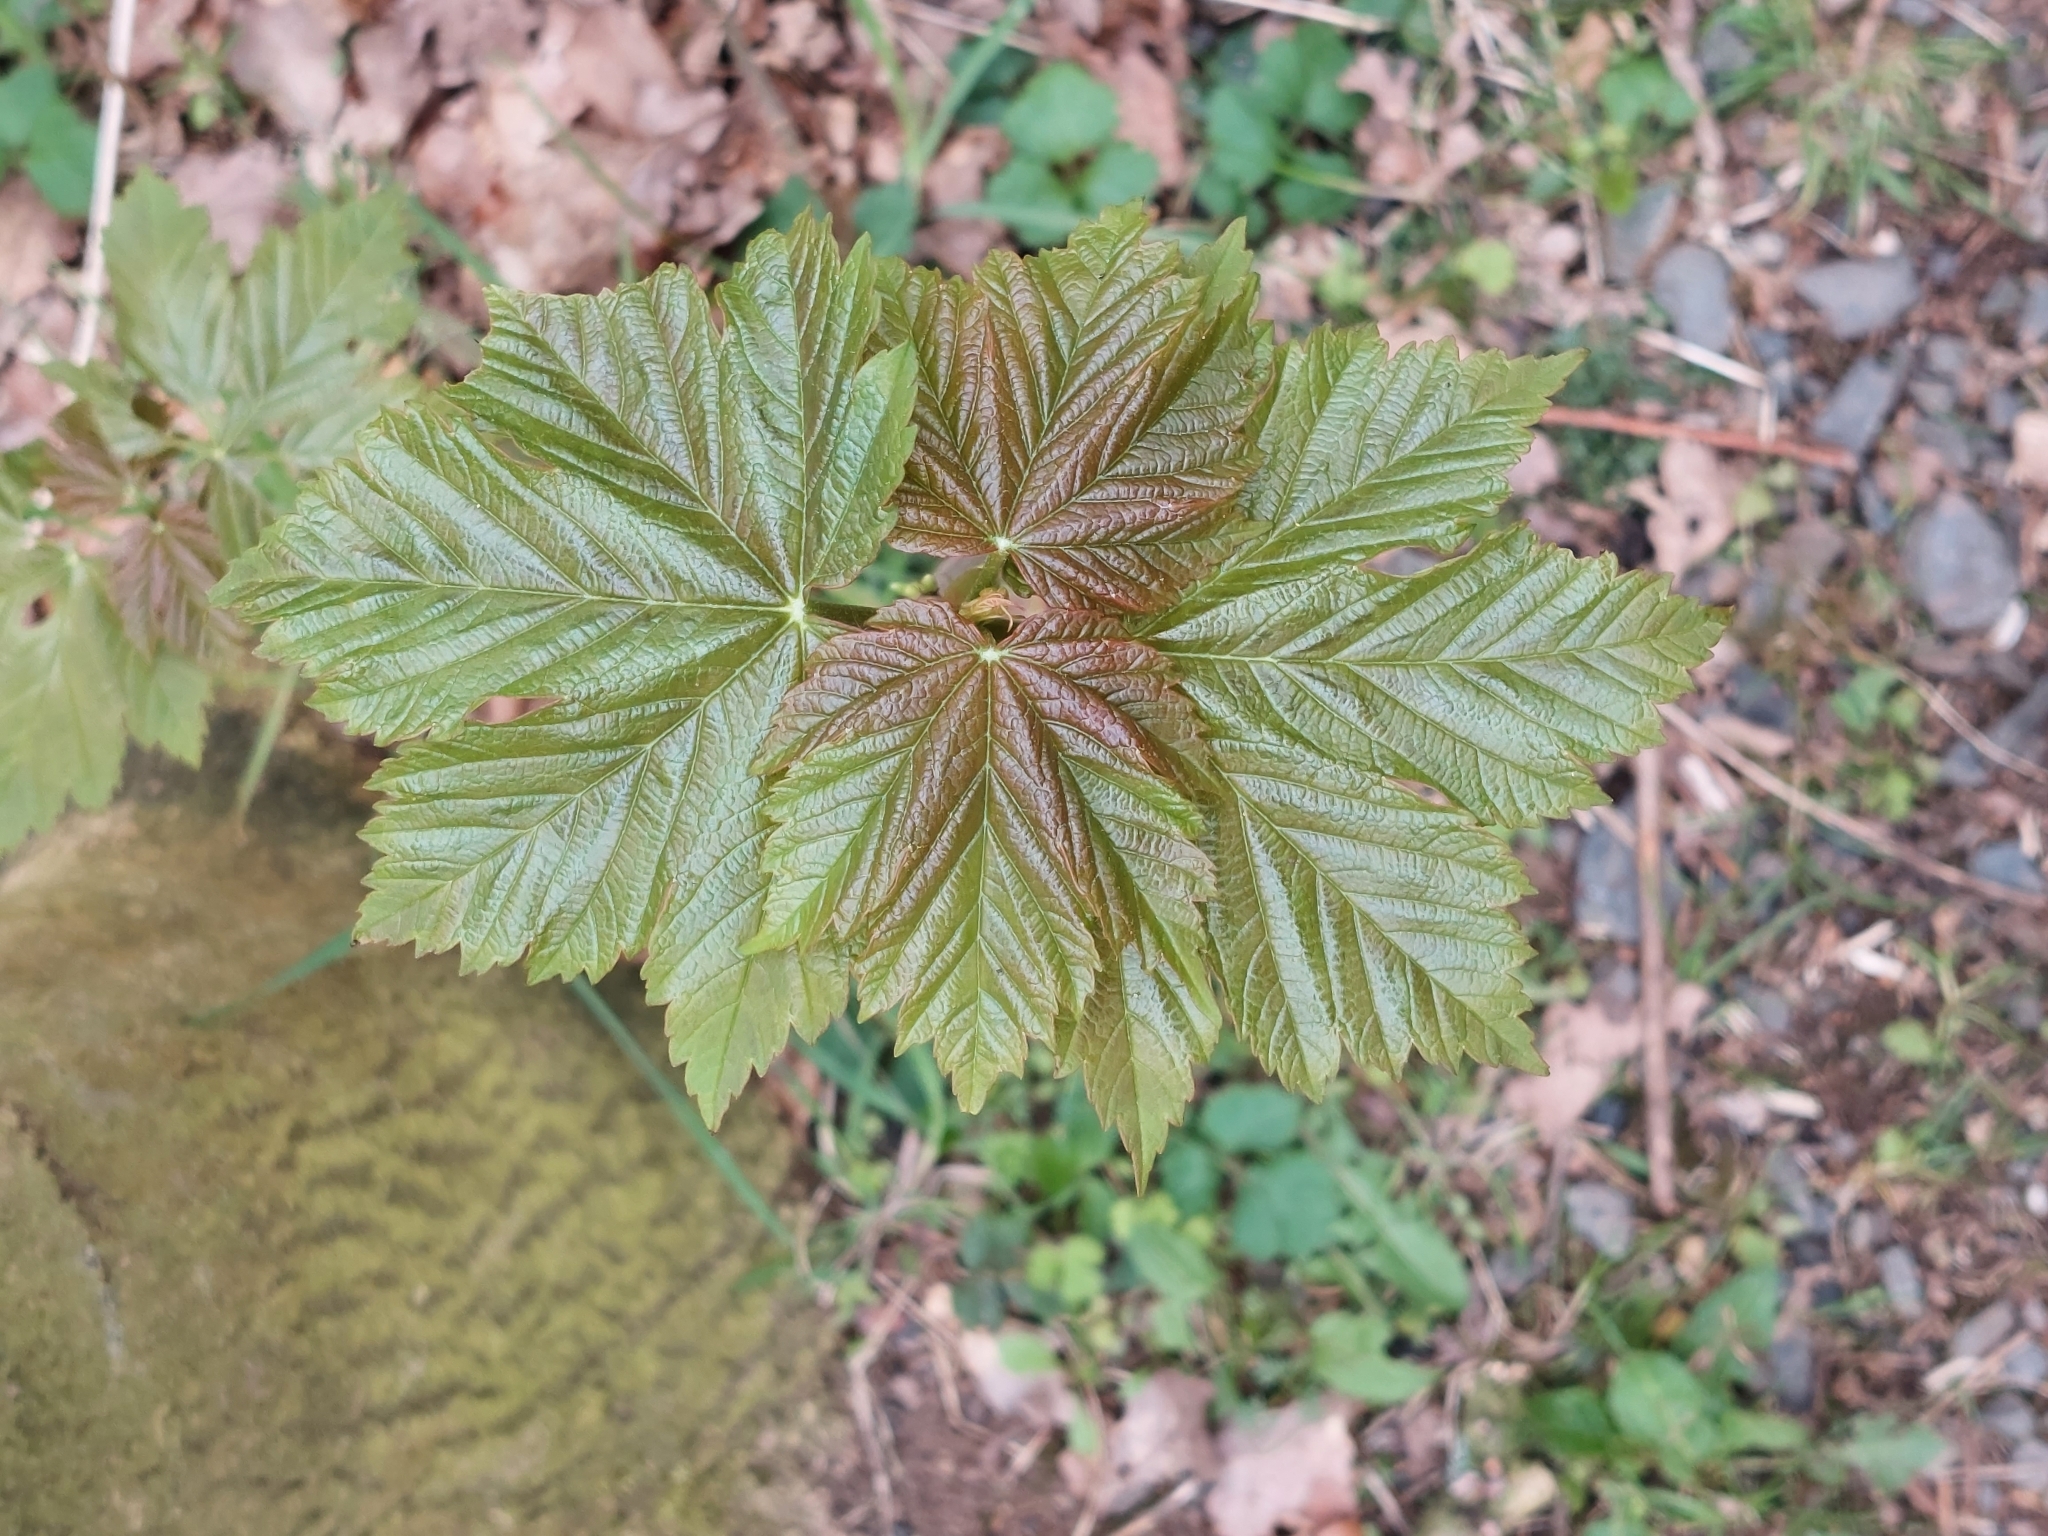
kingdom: Plantae
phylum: Tracheophyta
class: Magnoliopsida
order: Sapindales
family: Sapindaceae
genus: Acer
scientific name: Acer pseudoplatanus
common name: Sycamore
